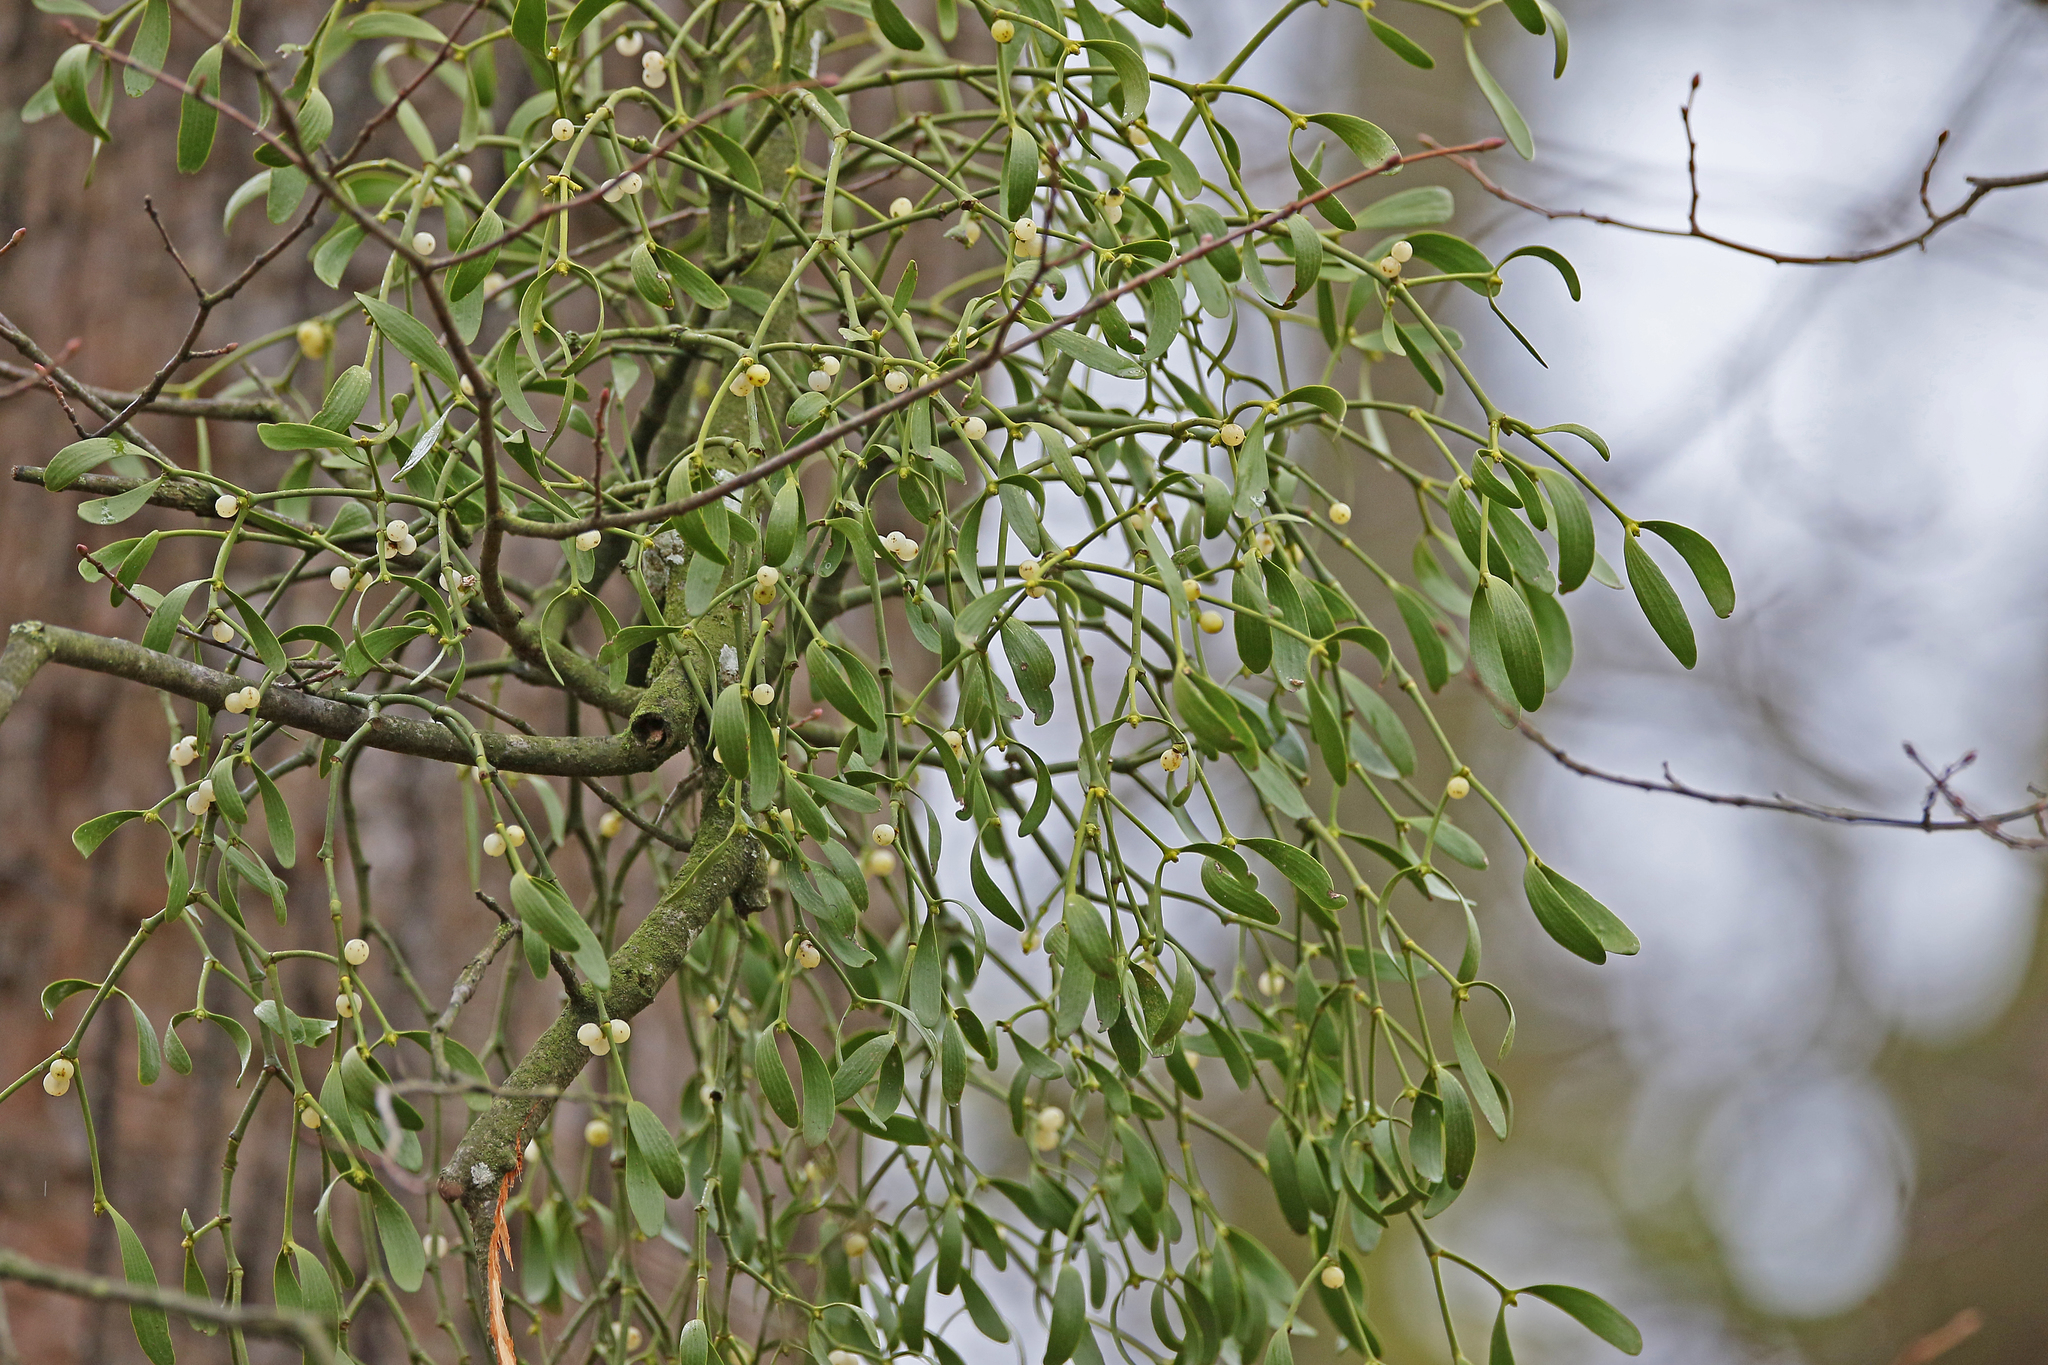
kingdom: Plantae
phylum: Tracheophyta
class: Magnoliopsida
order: Santalales
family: Viscaceae
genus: Viscum
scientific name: Viscum album
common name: Mistletoe
